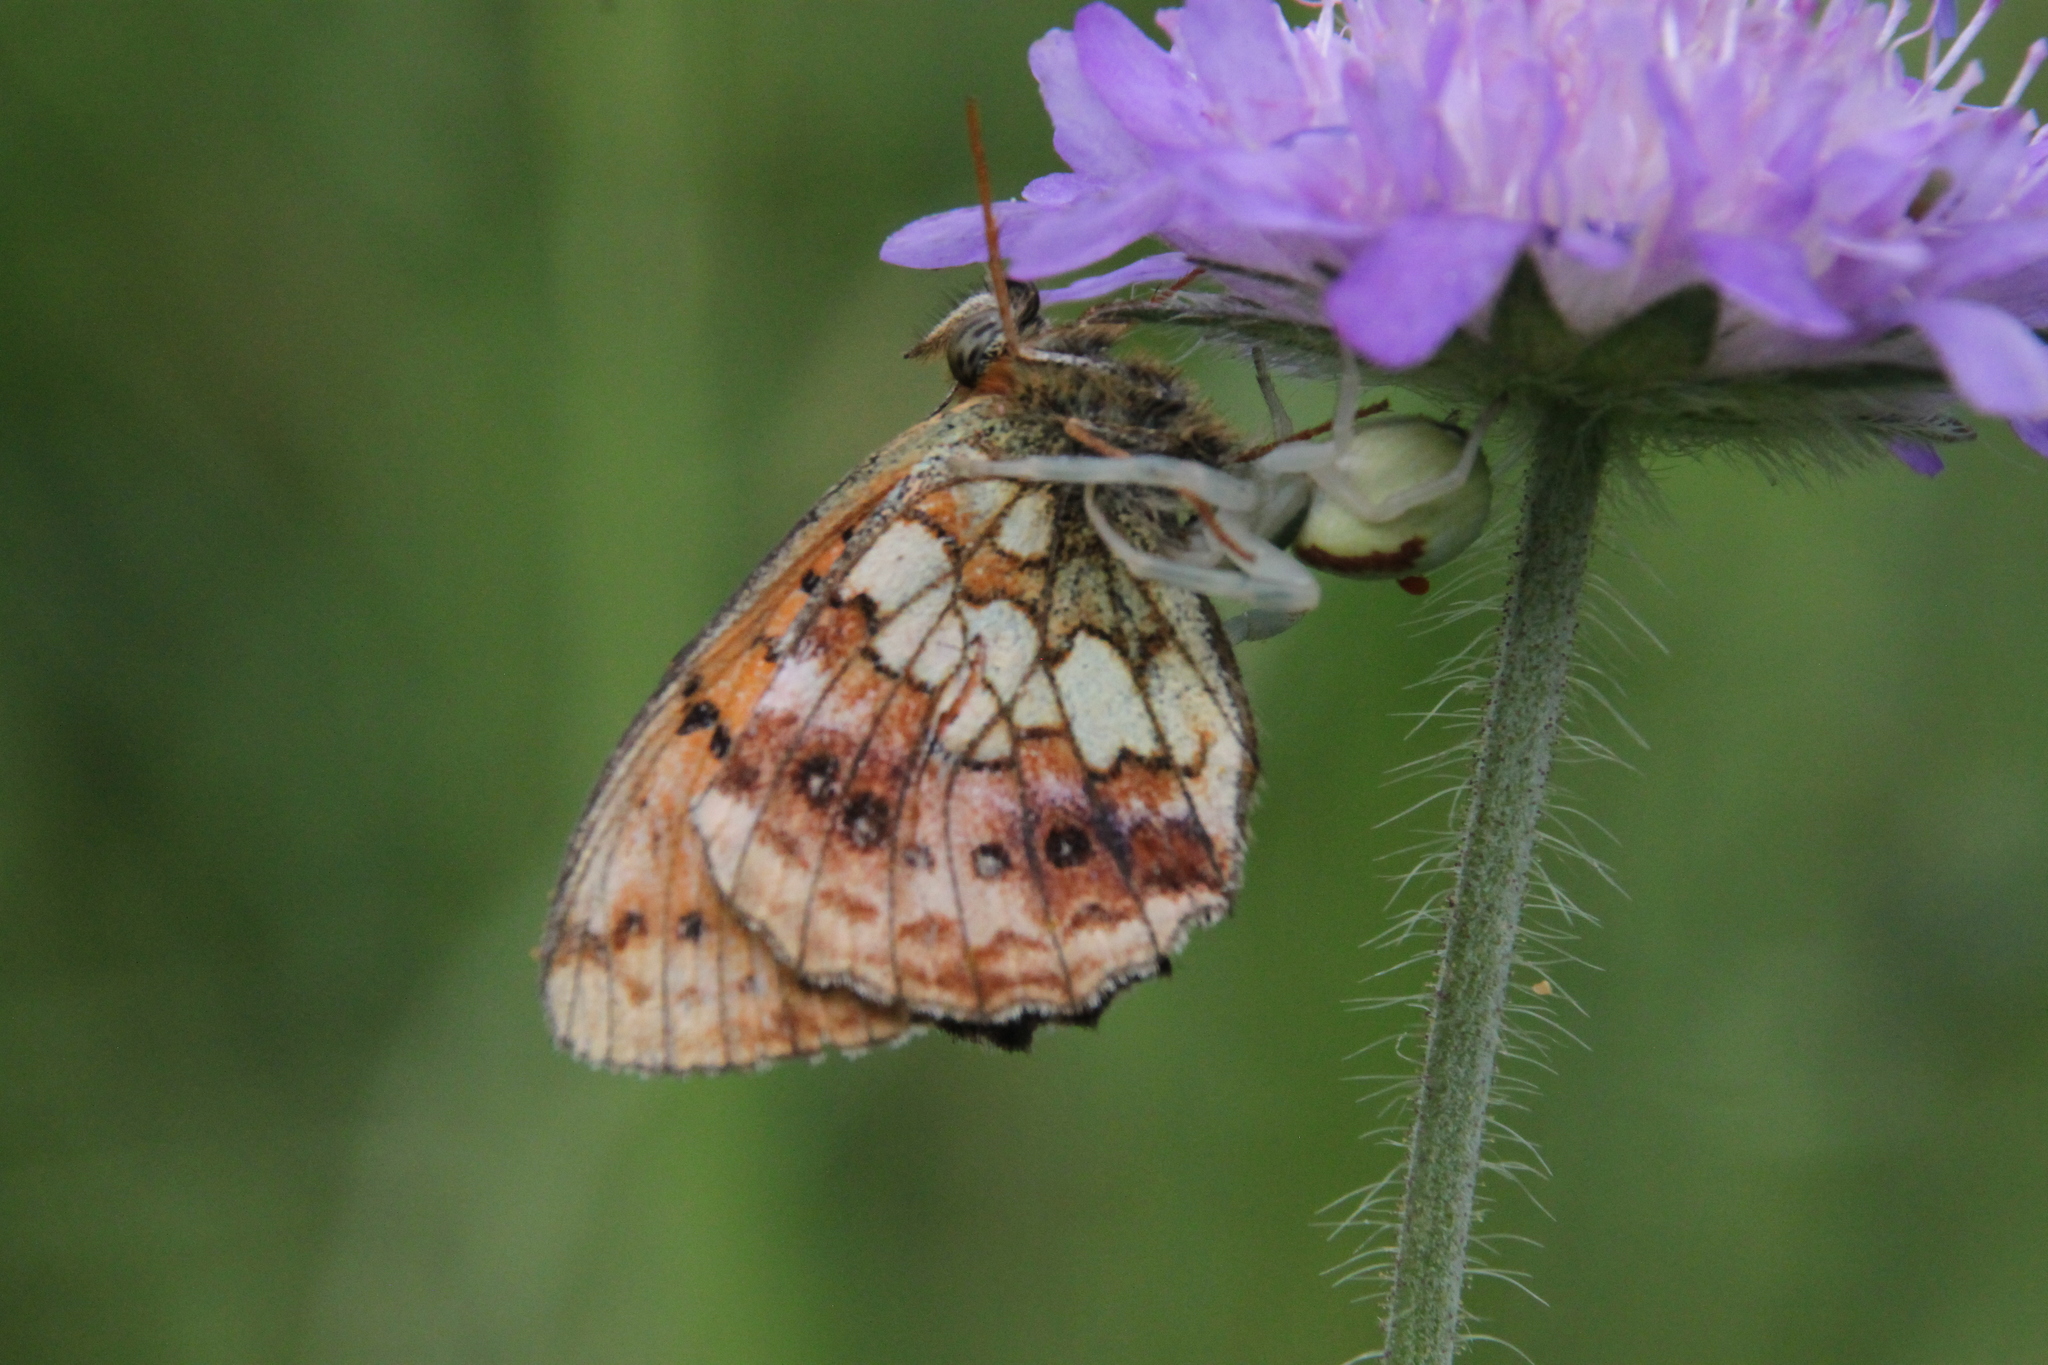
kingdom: Animalia
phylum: Arthropoda
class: Arachnida
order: Araneae
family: Thomisidae
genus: Misumena
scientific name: Misumena vatia
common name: Goldenrod crab spider
